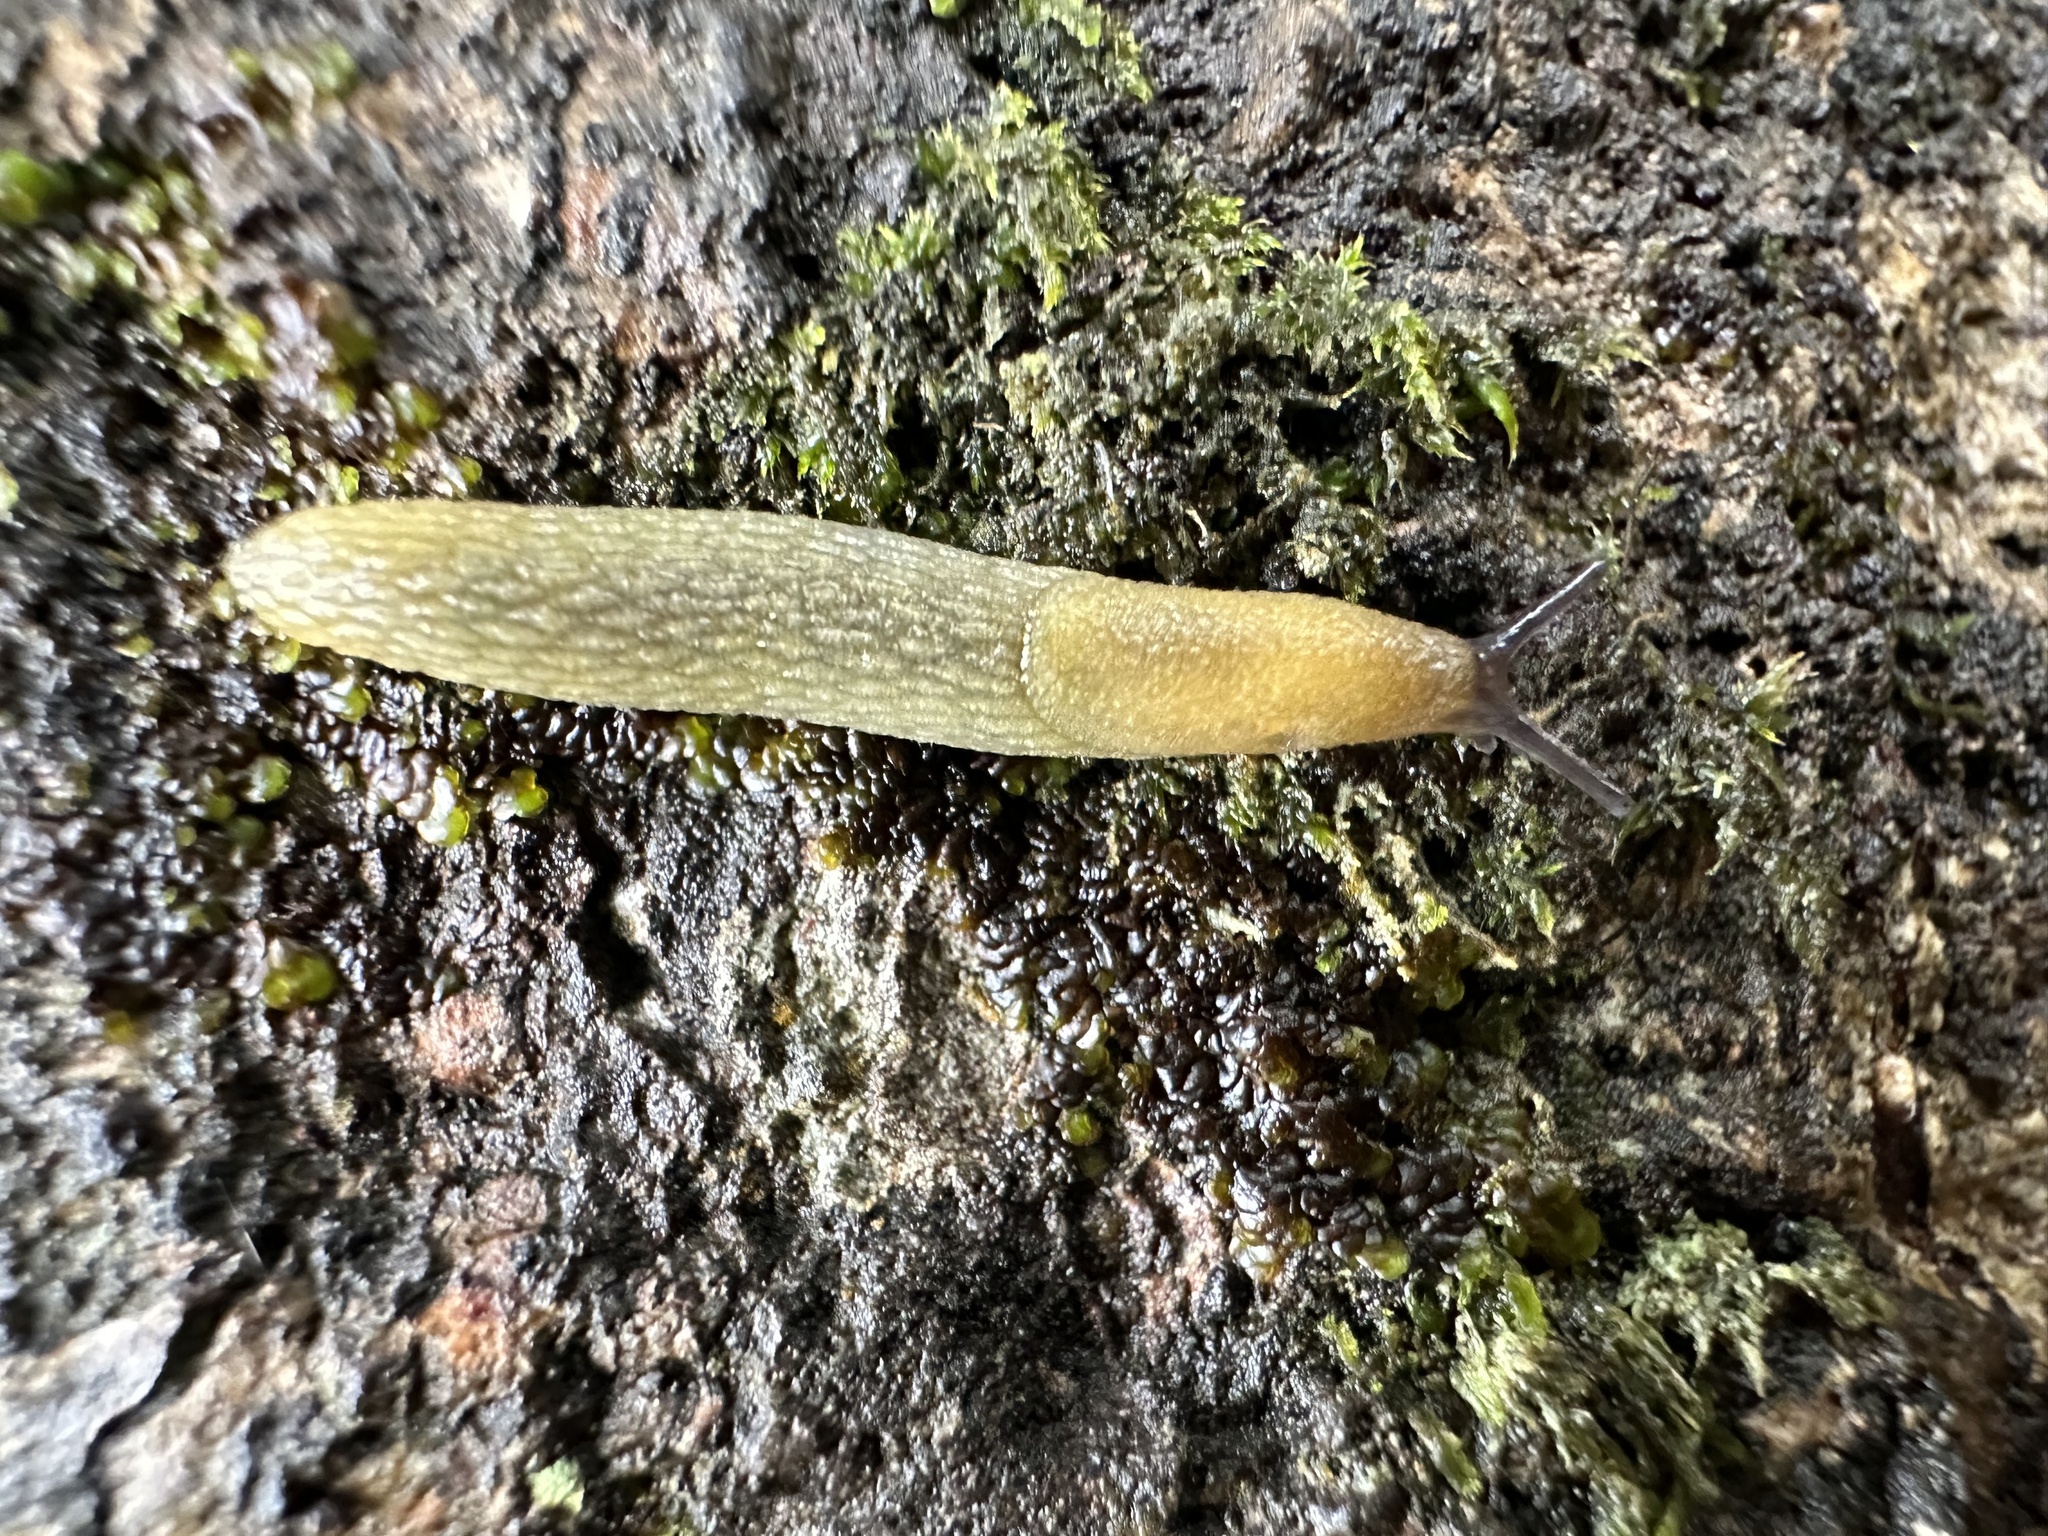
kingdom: Animalia
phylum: Mollusca
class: Gastropoda
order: Stylommatophora
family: Arionidae
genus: Arion
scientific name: Arion intermedius
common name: Hedgehog slug
